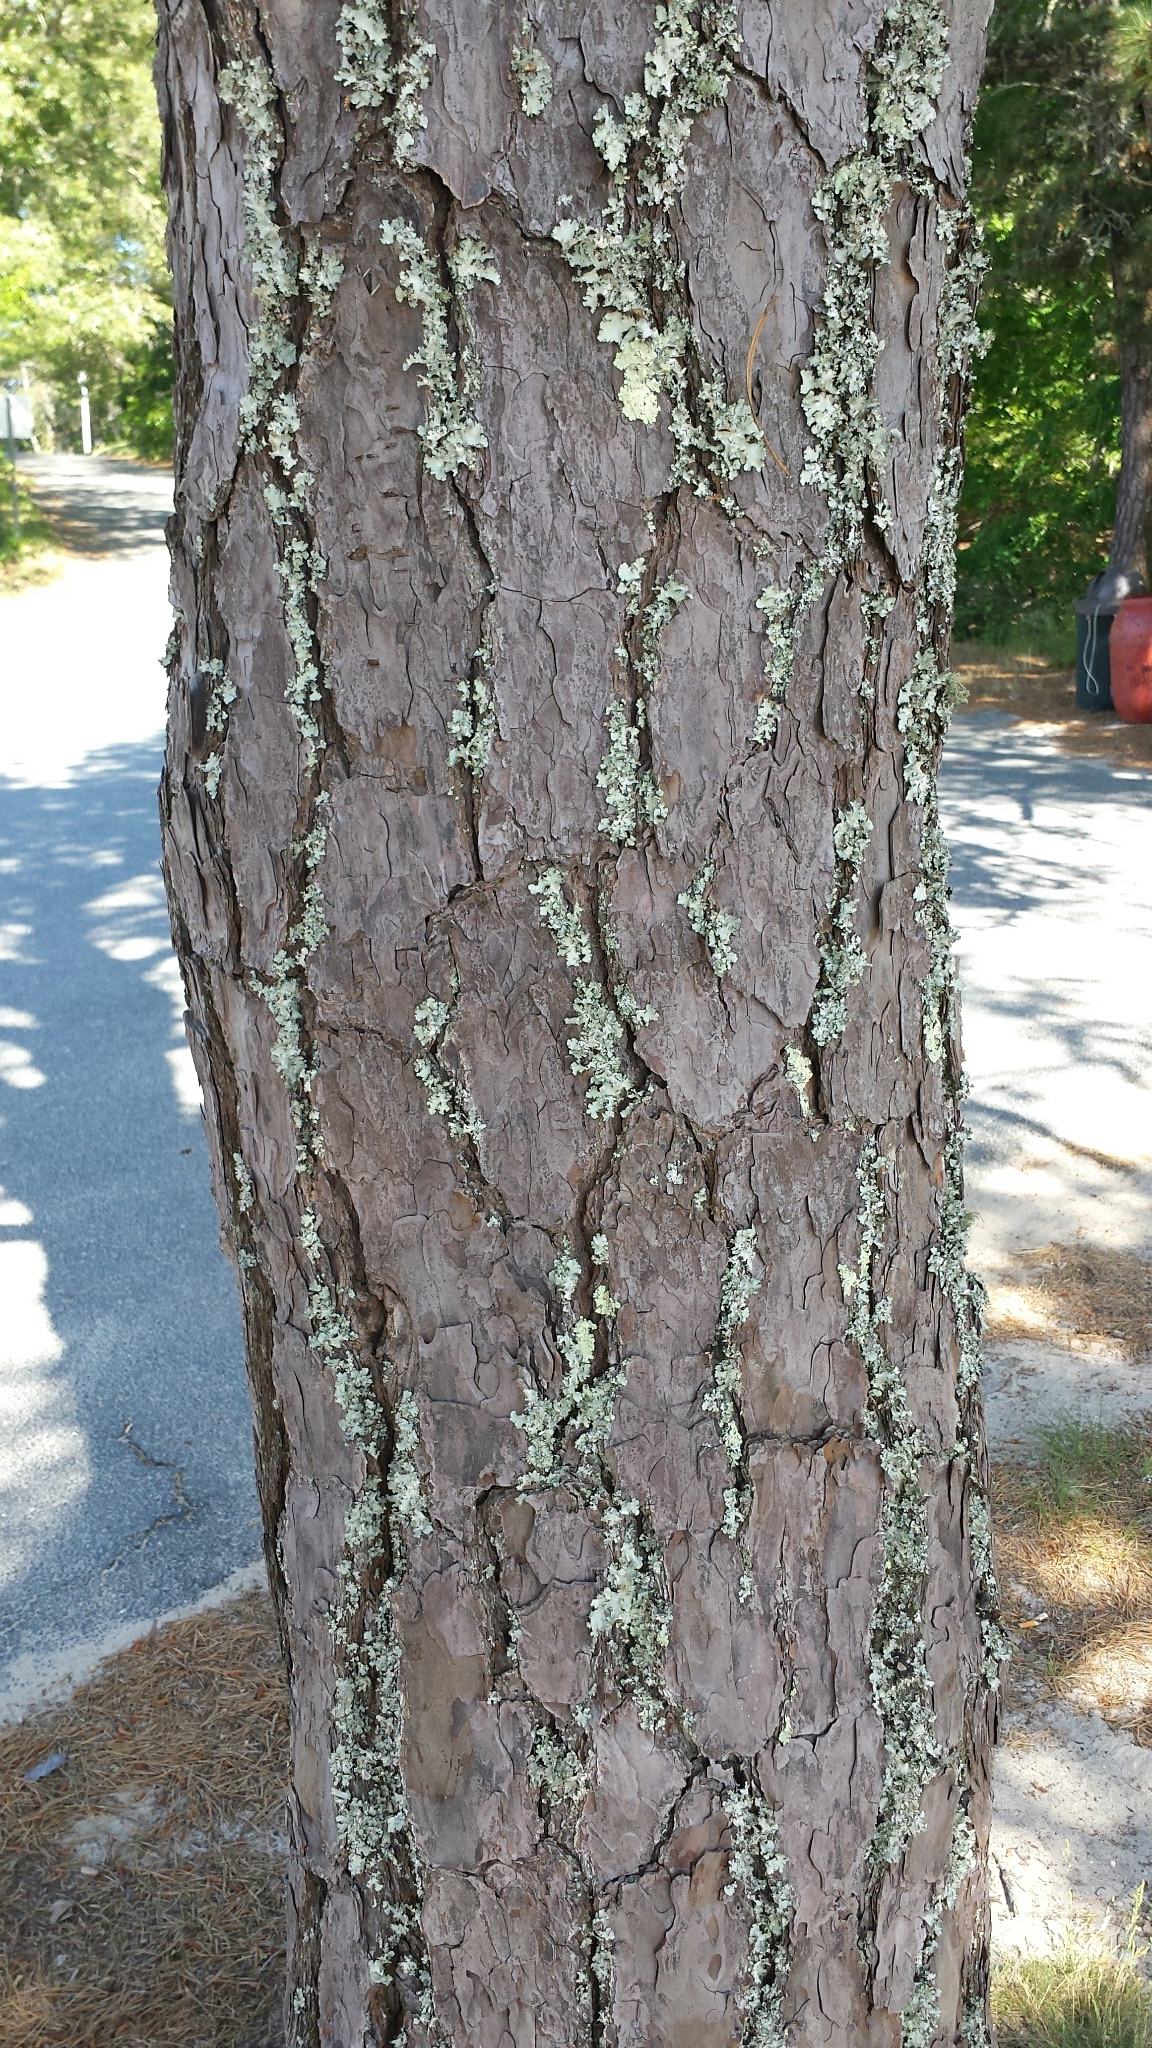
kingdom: Plantae
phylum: Tracheophyta
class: Pinopsida
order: Pinales
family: Pinaceae
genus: Pinus
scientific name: Pinus rigida
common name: Pitch pine
